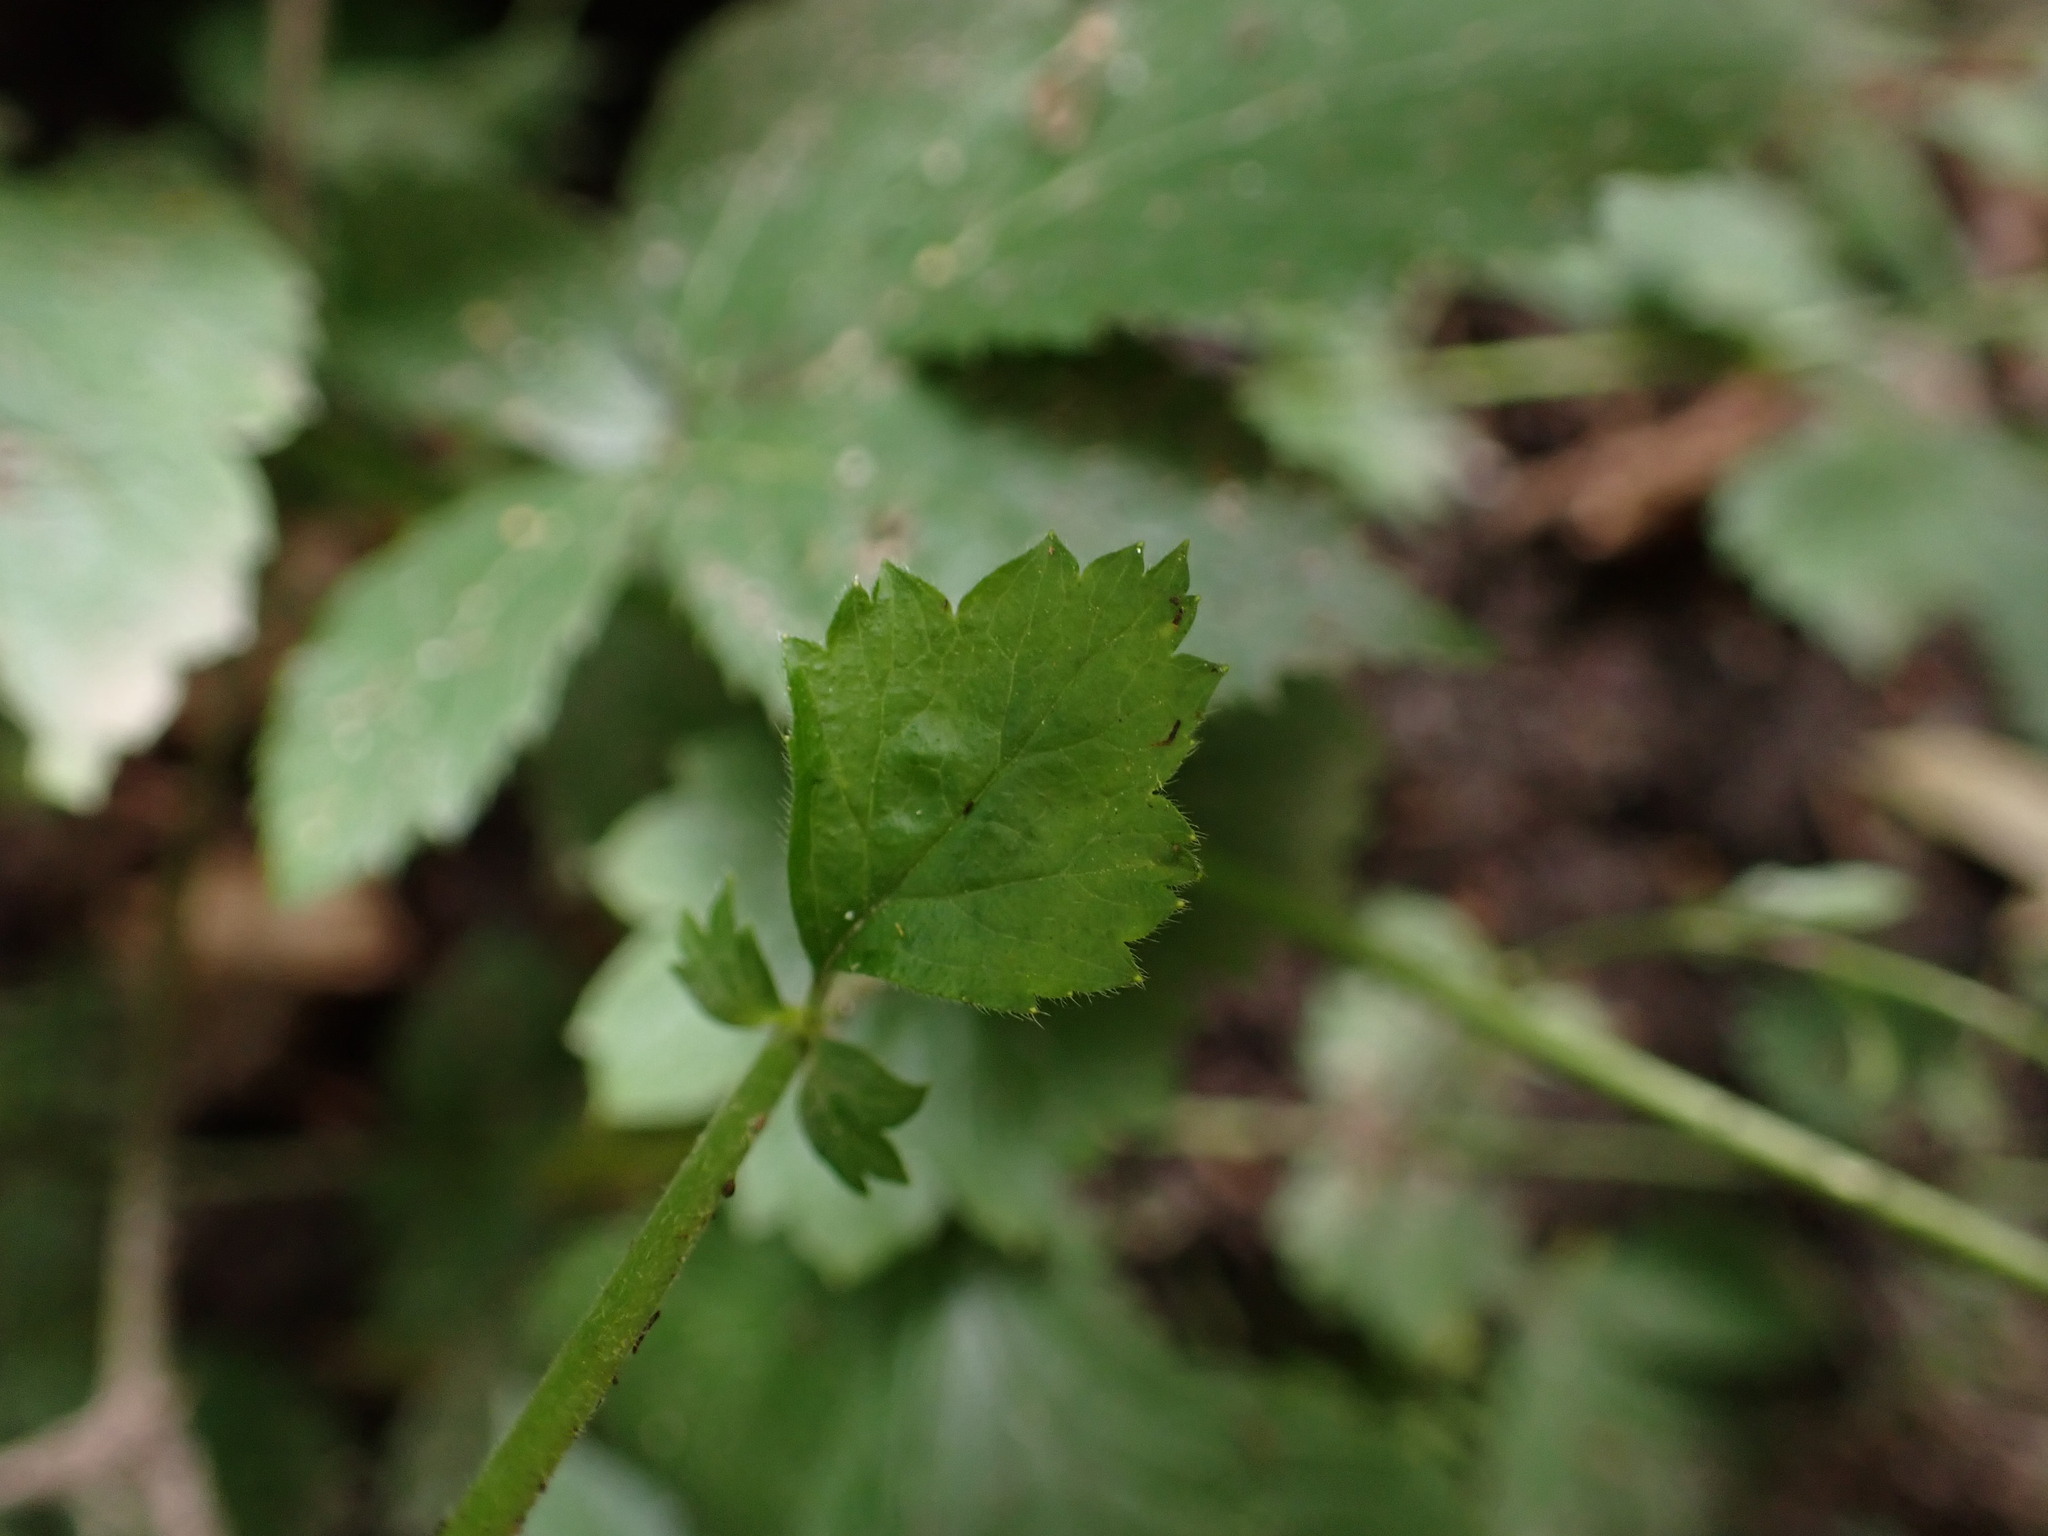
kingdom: Plantae
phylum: Tracheophyta
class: Magnoliopsida
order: Rosales
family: Rosaceae
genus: Geum
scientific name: Geum urbanum
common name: Wood avens
